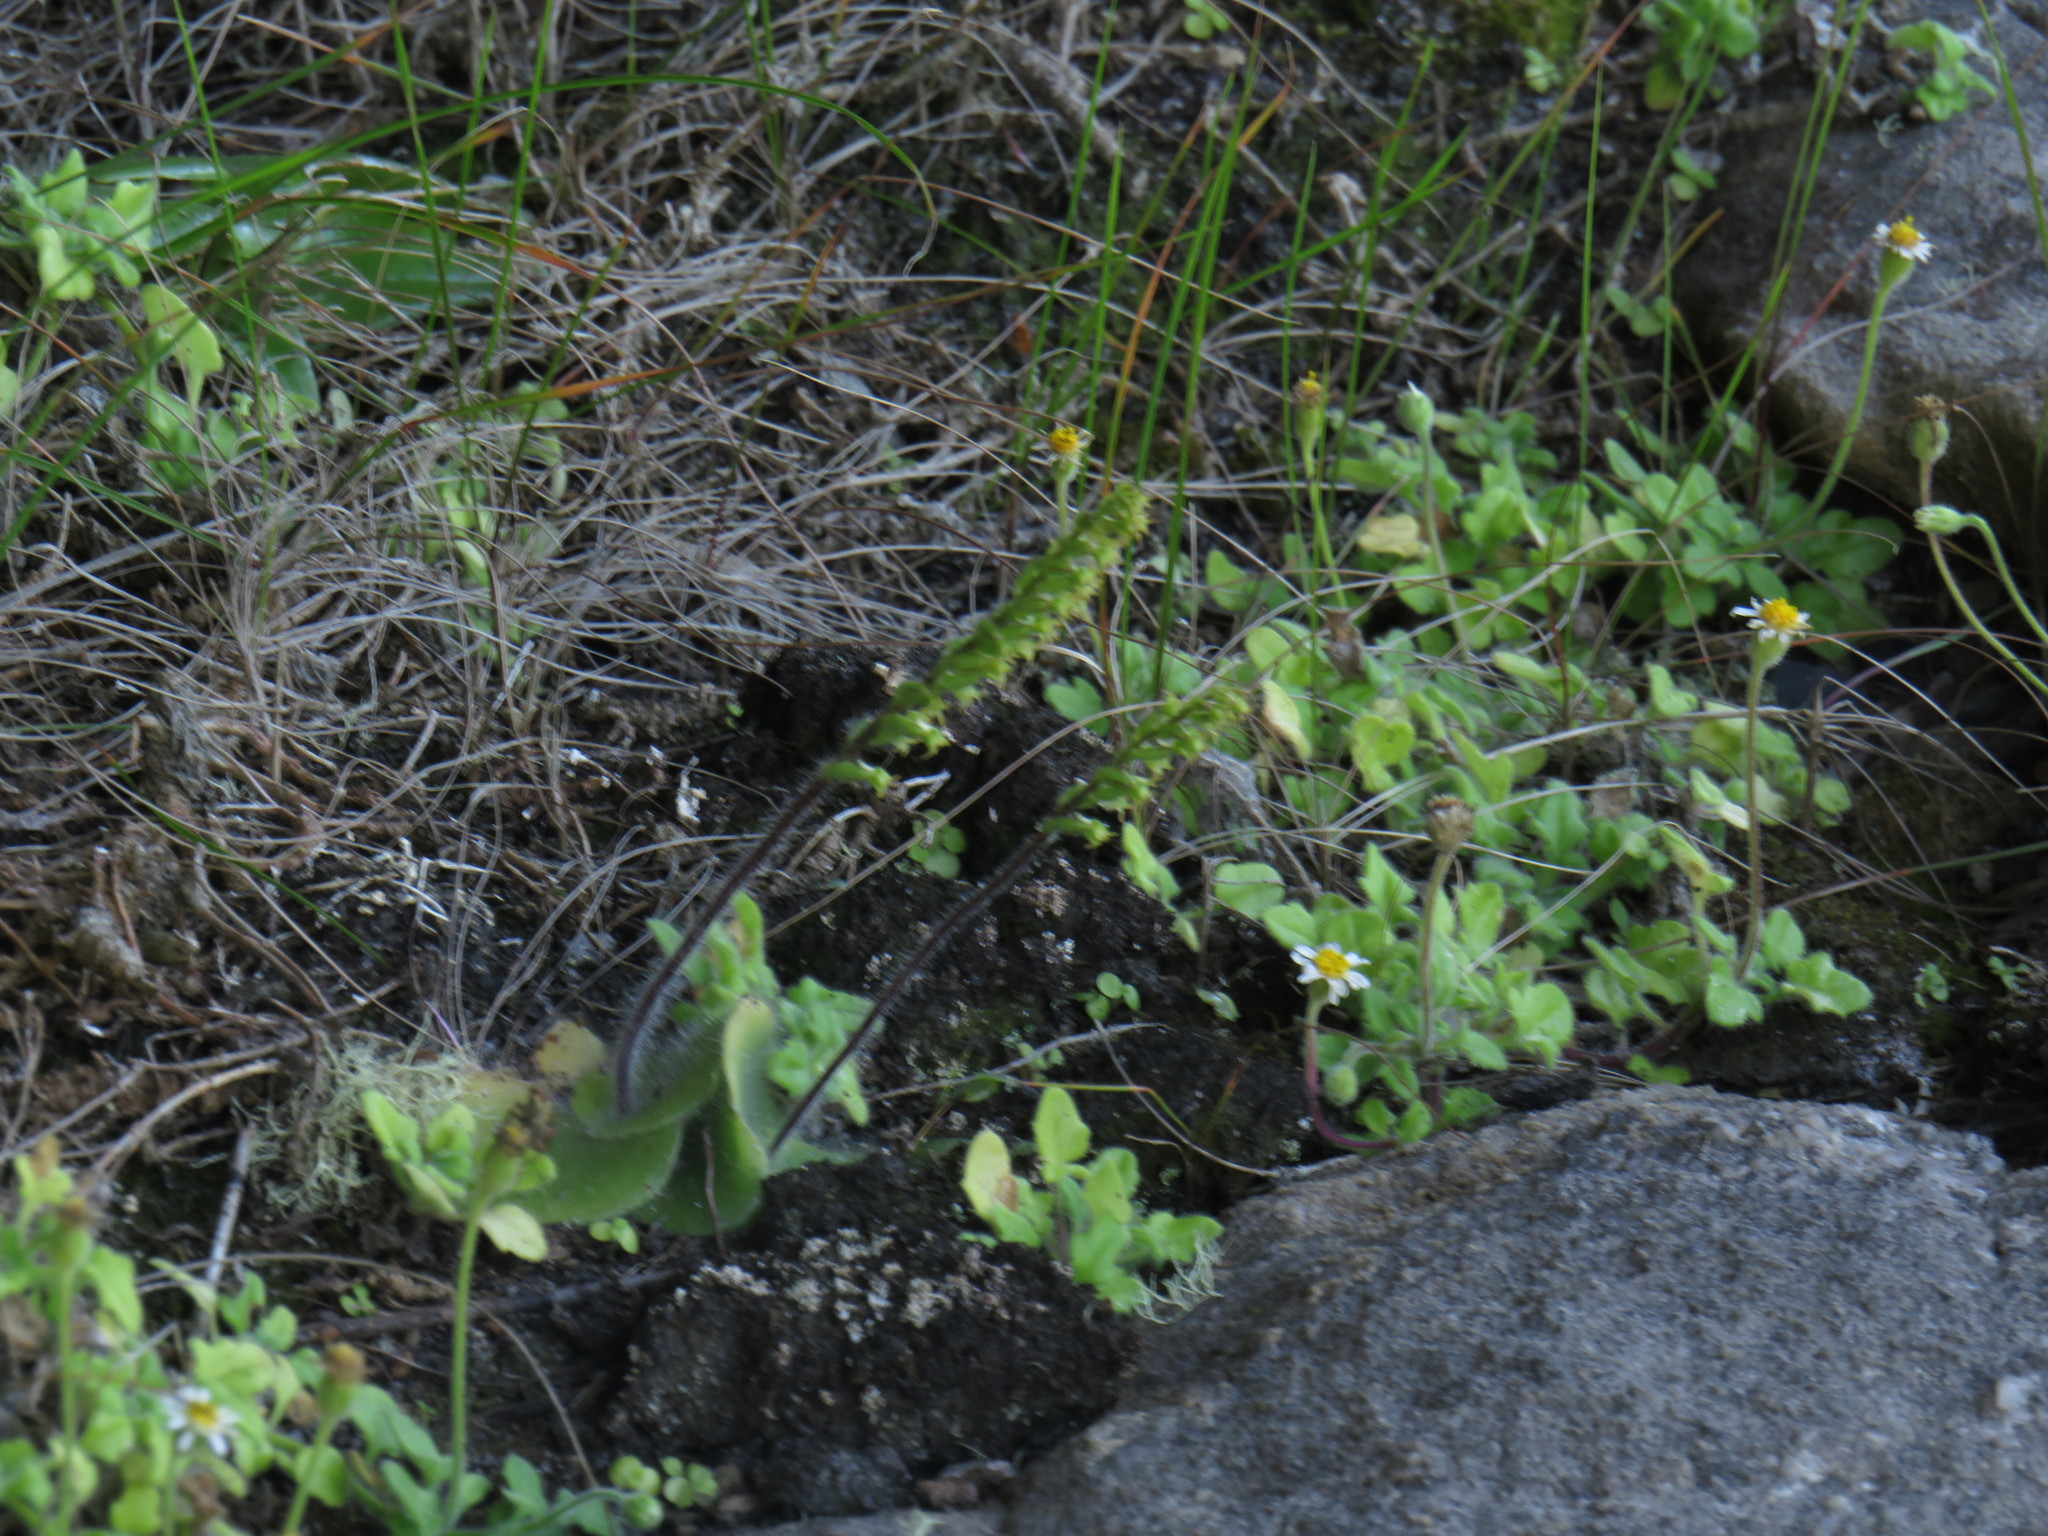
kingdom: Plantae
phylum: Tracheophyta
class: Liliopsida
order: Asparagales
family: Orchidaceae
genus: Holothrix
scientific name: Holothrix condensata
